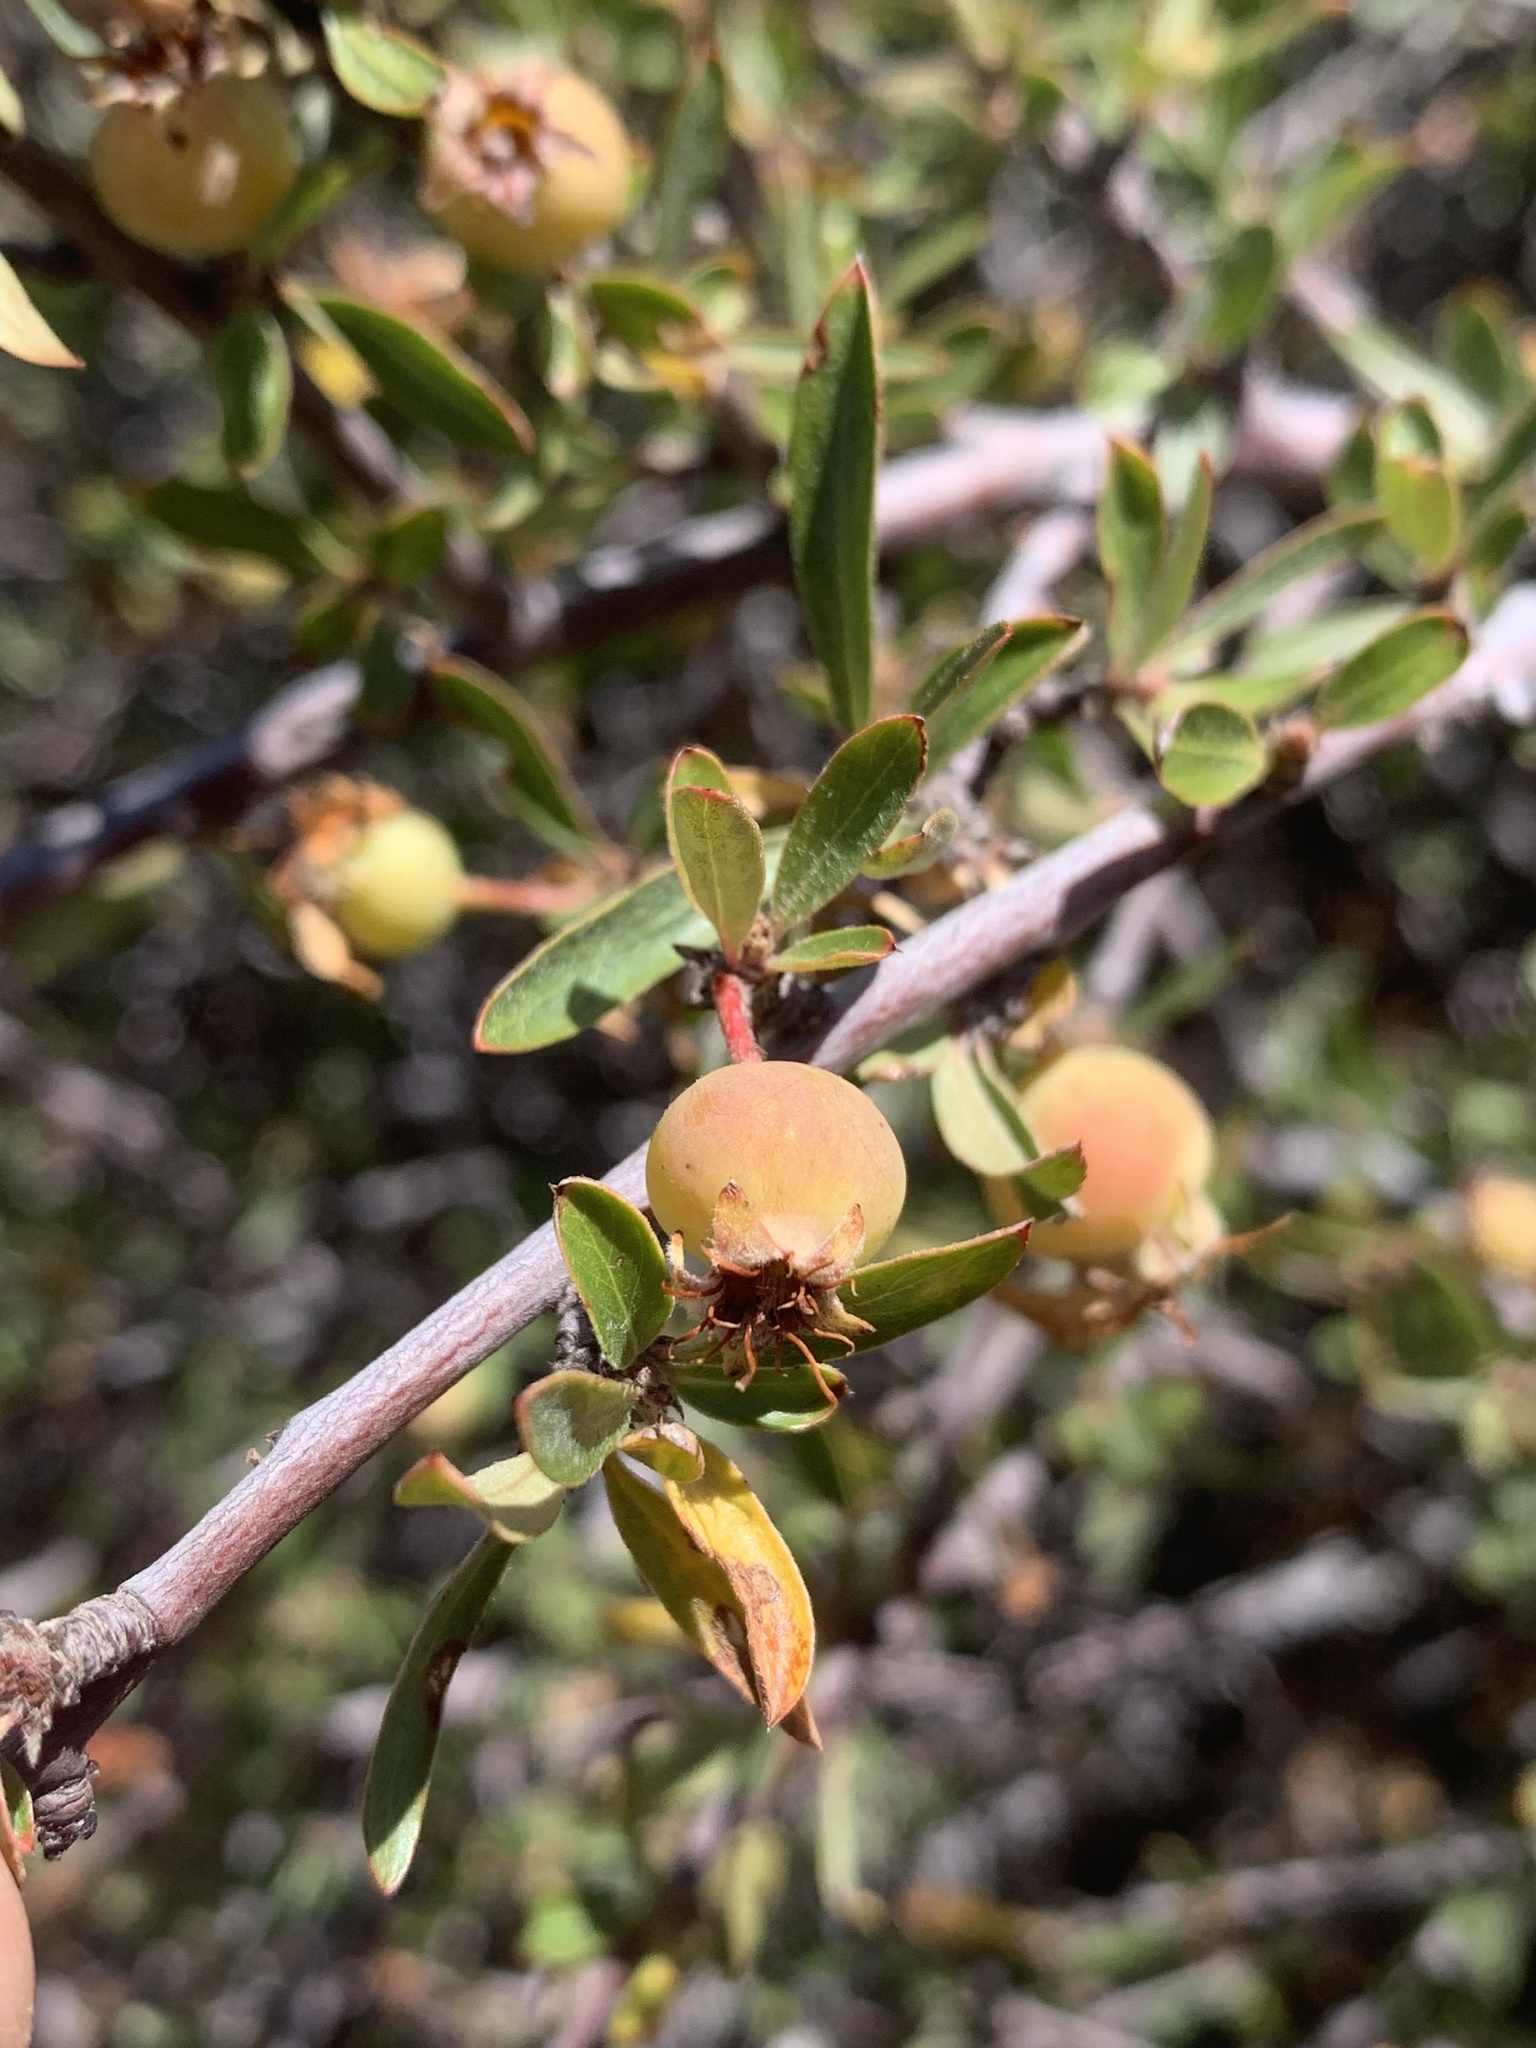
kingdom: Plantae
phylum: Tracheophyta
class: Magnoliopsida
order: Rosales
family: Rosaceae
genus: Amelanchier
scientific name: Amelanchier ramosissima
